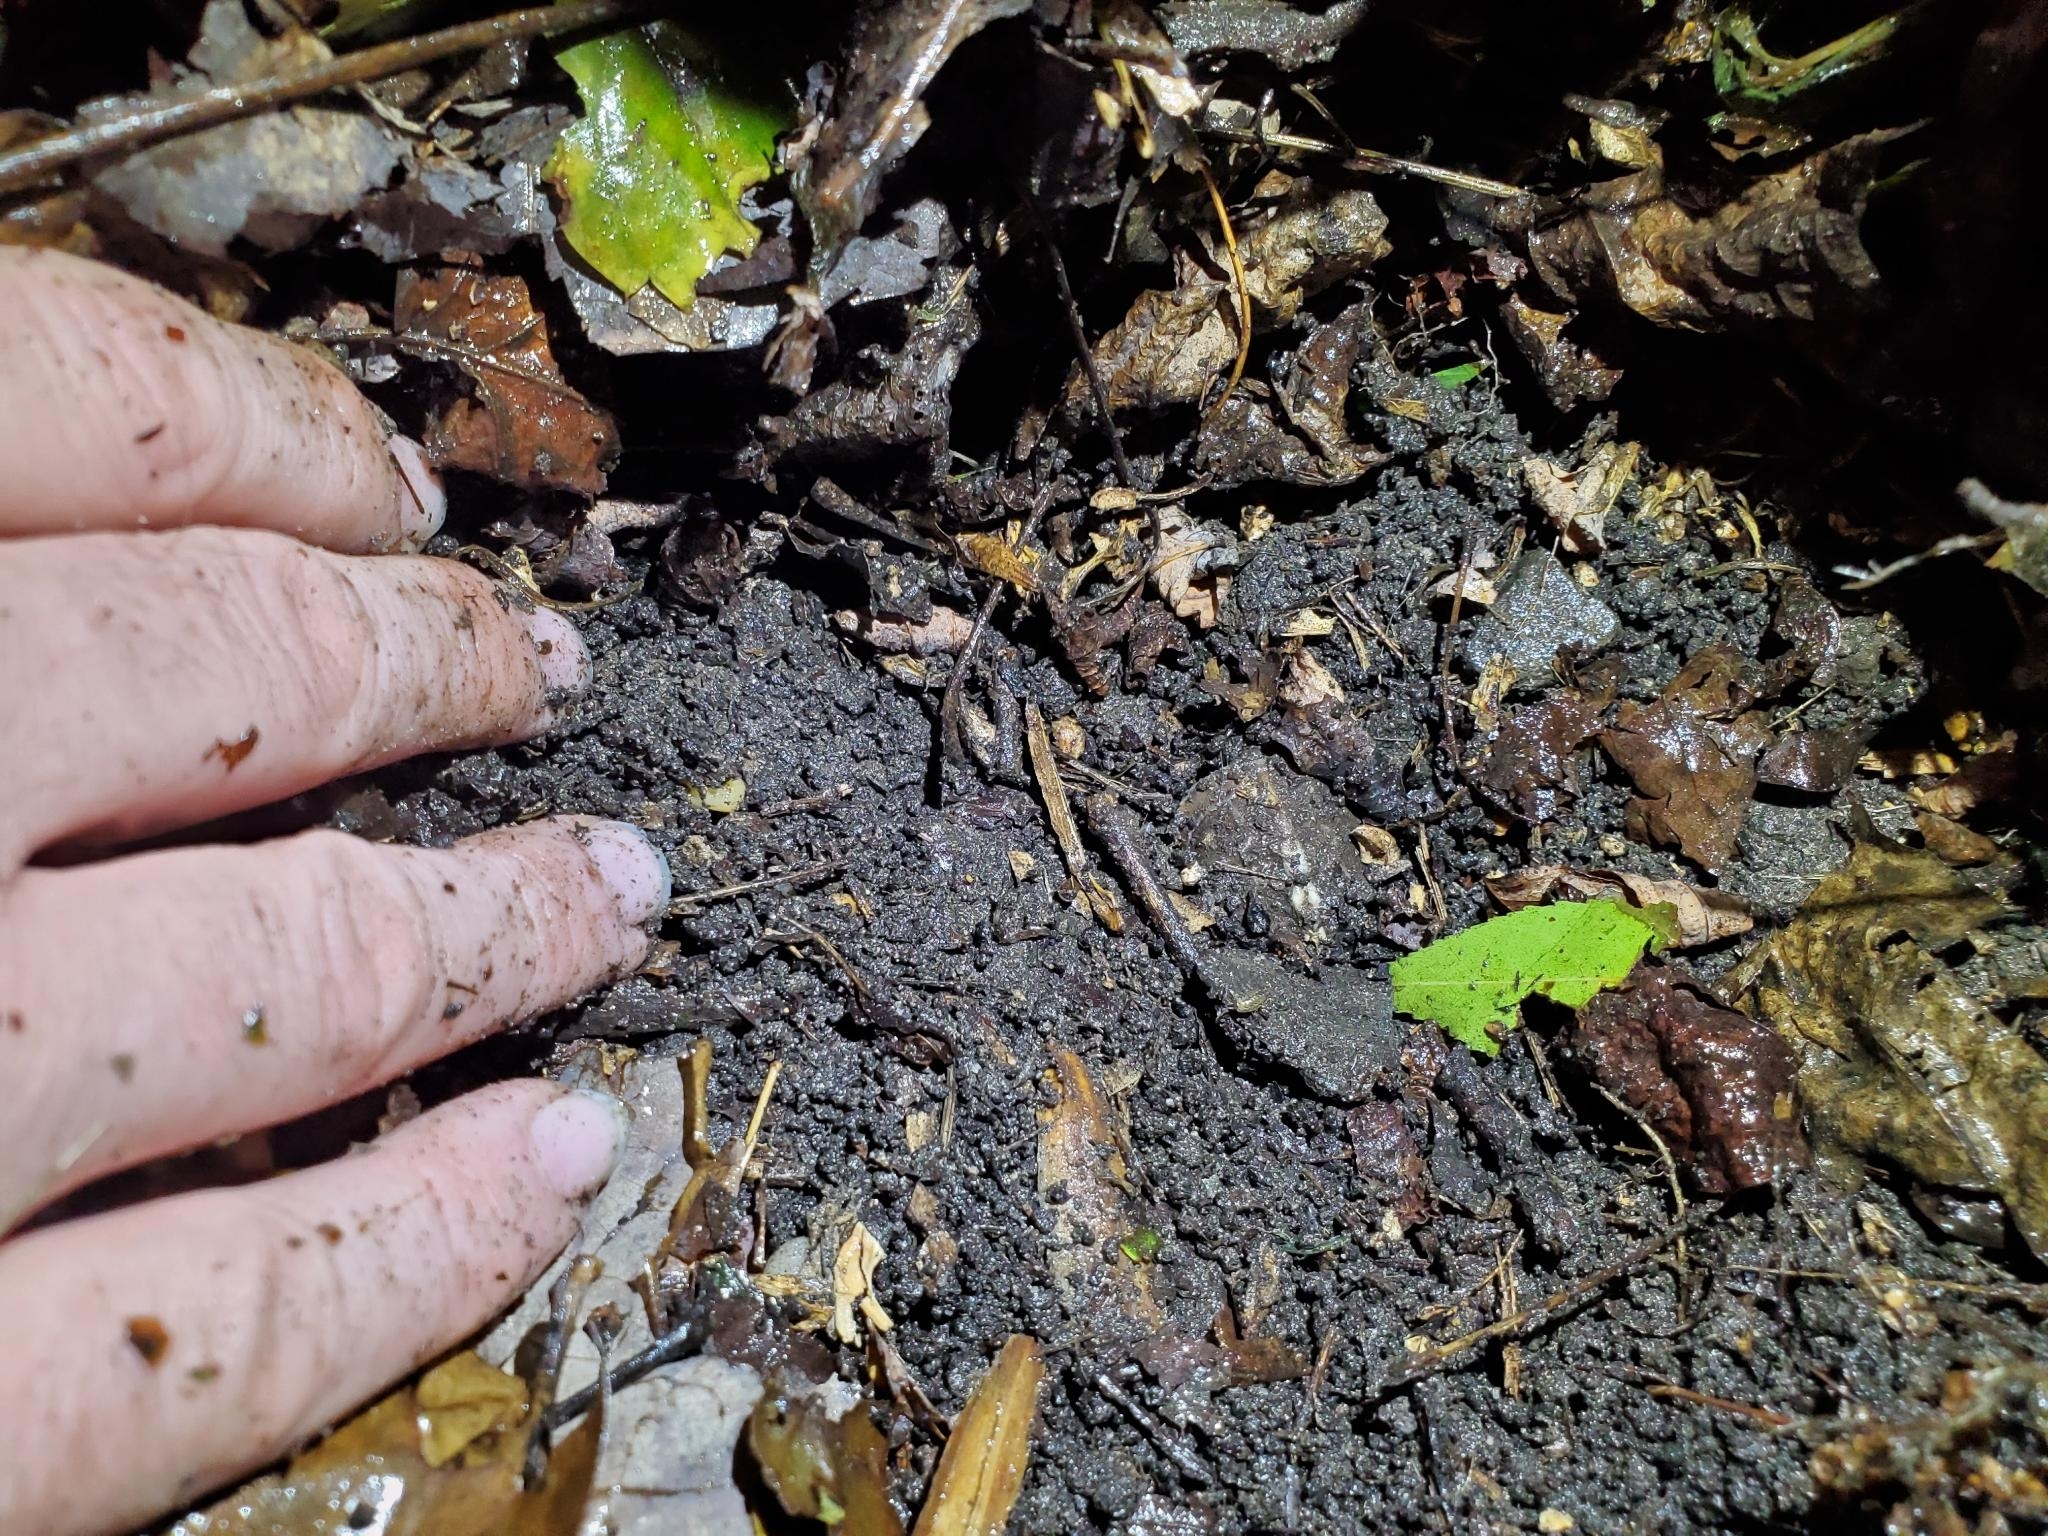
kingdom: Animalia
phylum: Chordata
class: Testudines
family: Emydidae
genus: Terrapene
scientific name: Terrapene carolina
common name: Common box turtle
